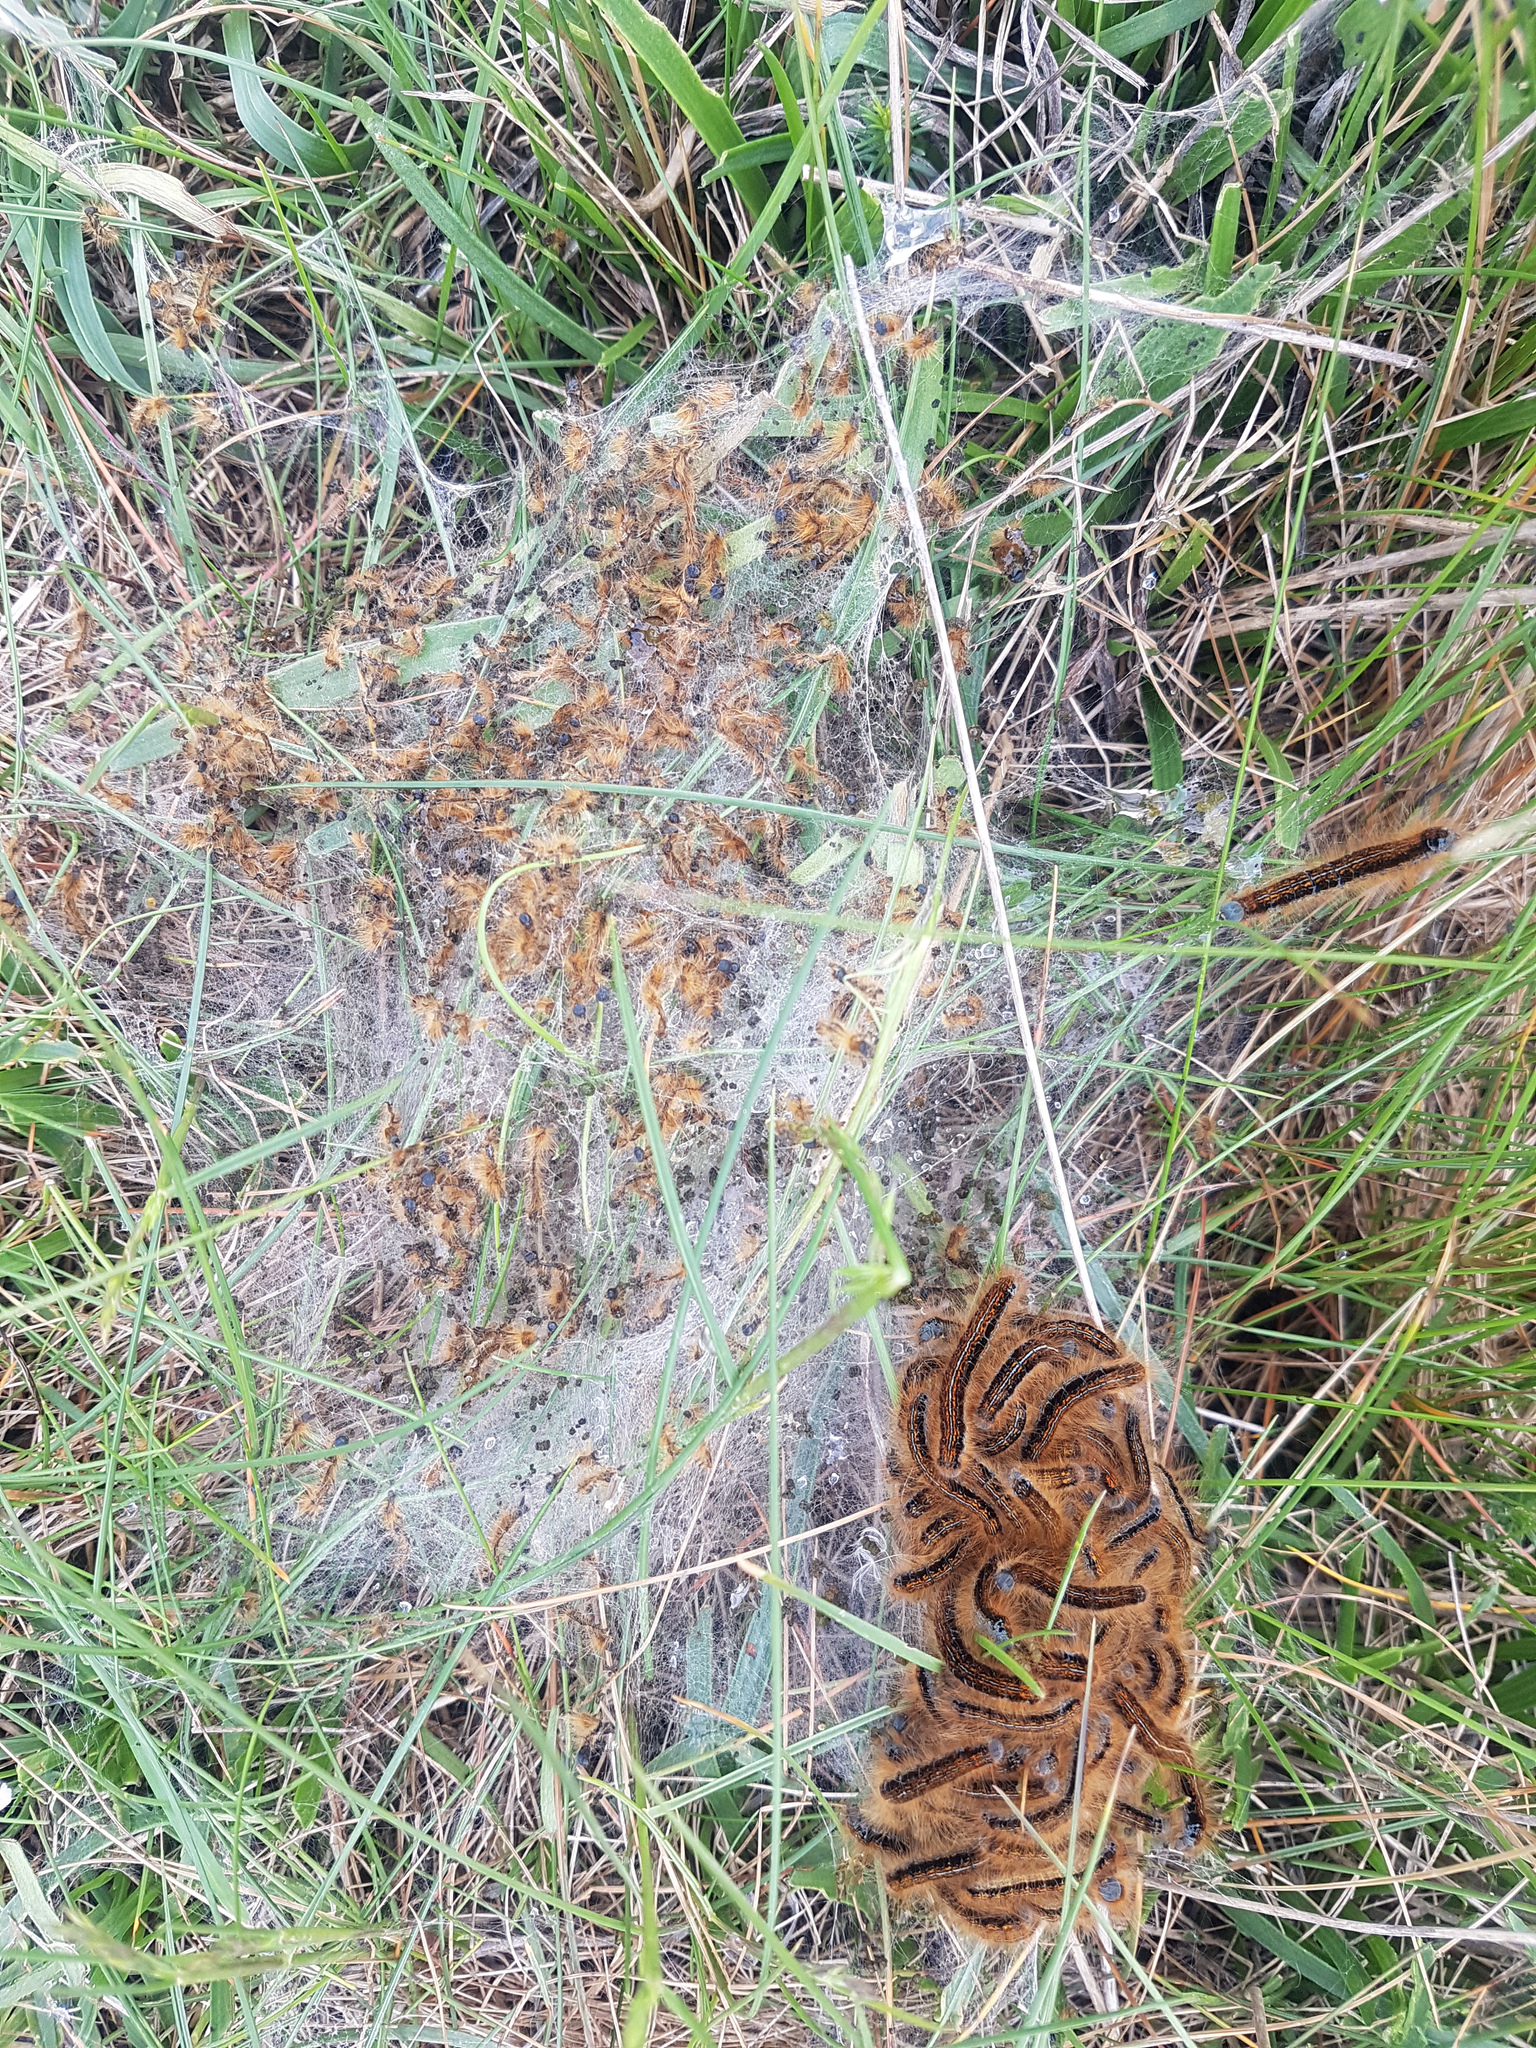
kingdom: Animalia
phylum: Arthropoda
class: Insecta
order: Lepidoptera
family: Lasiocampidae
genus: Malacosoma
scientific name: Malacosoma castrense
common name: Ground lackey
